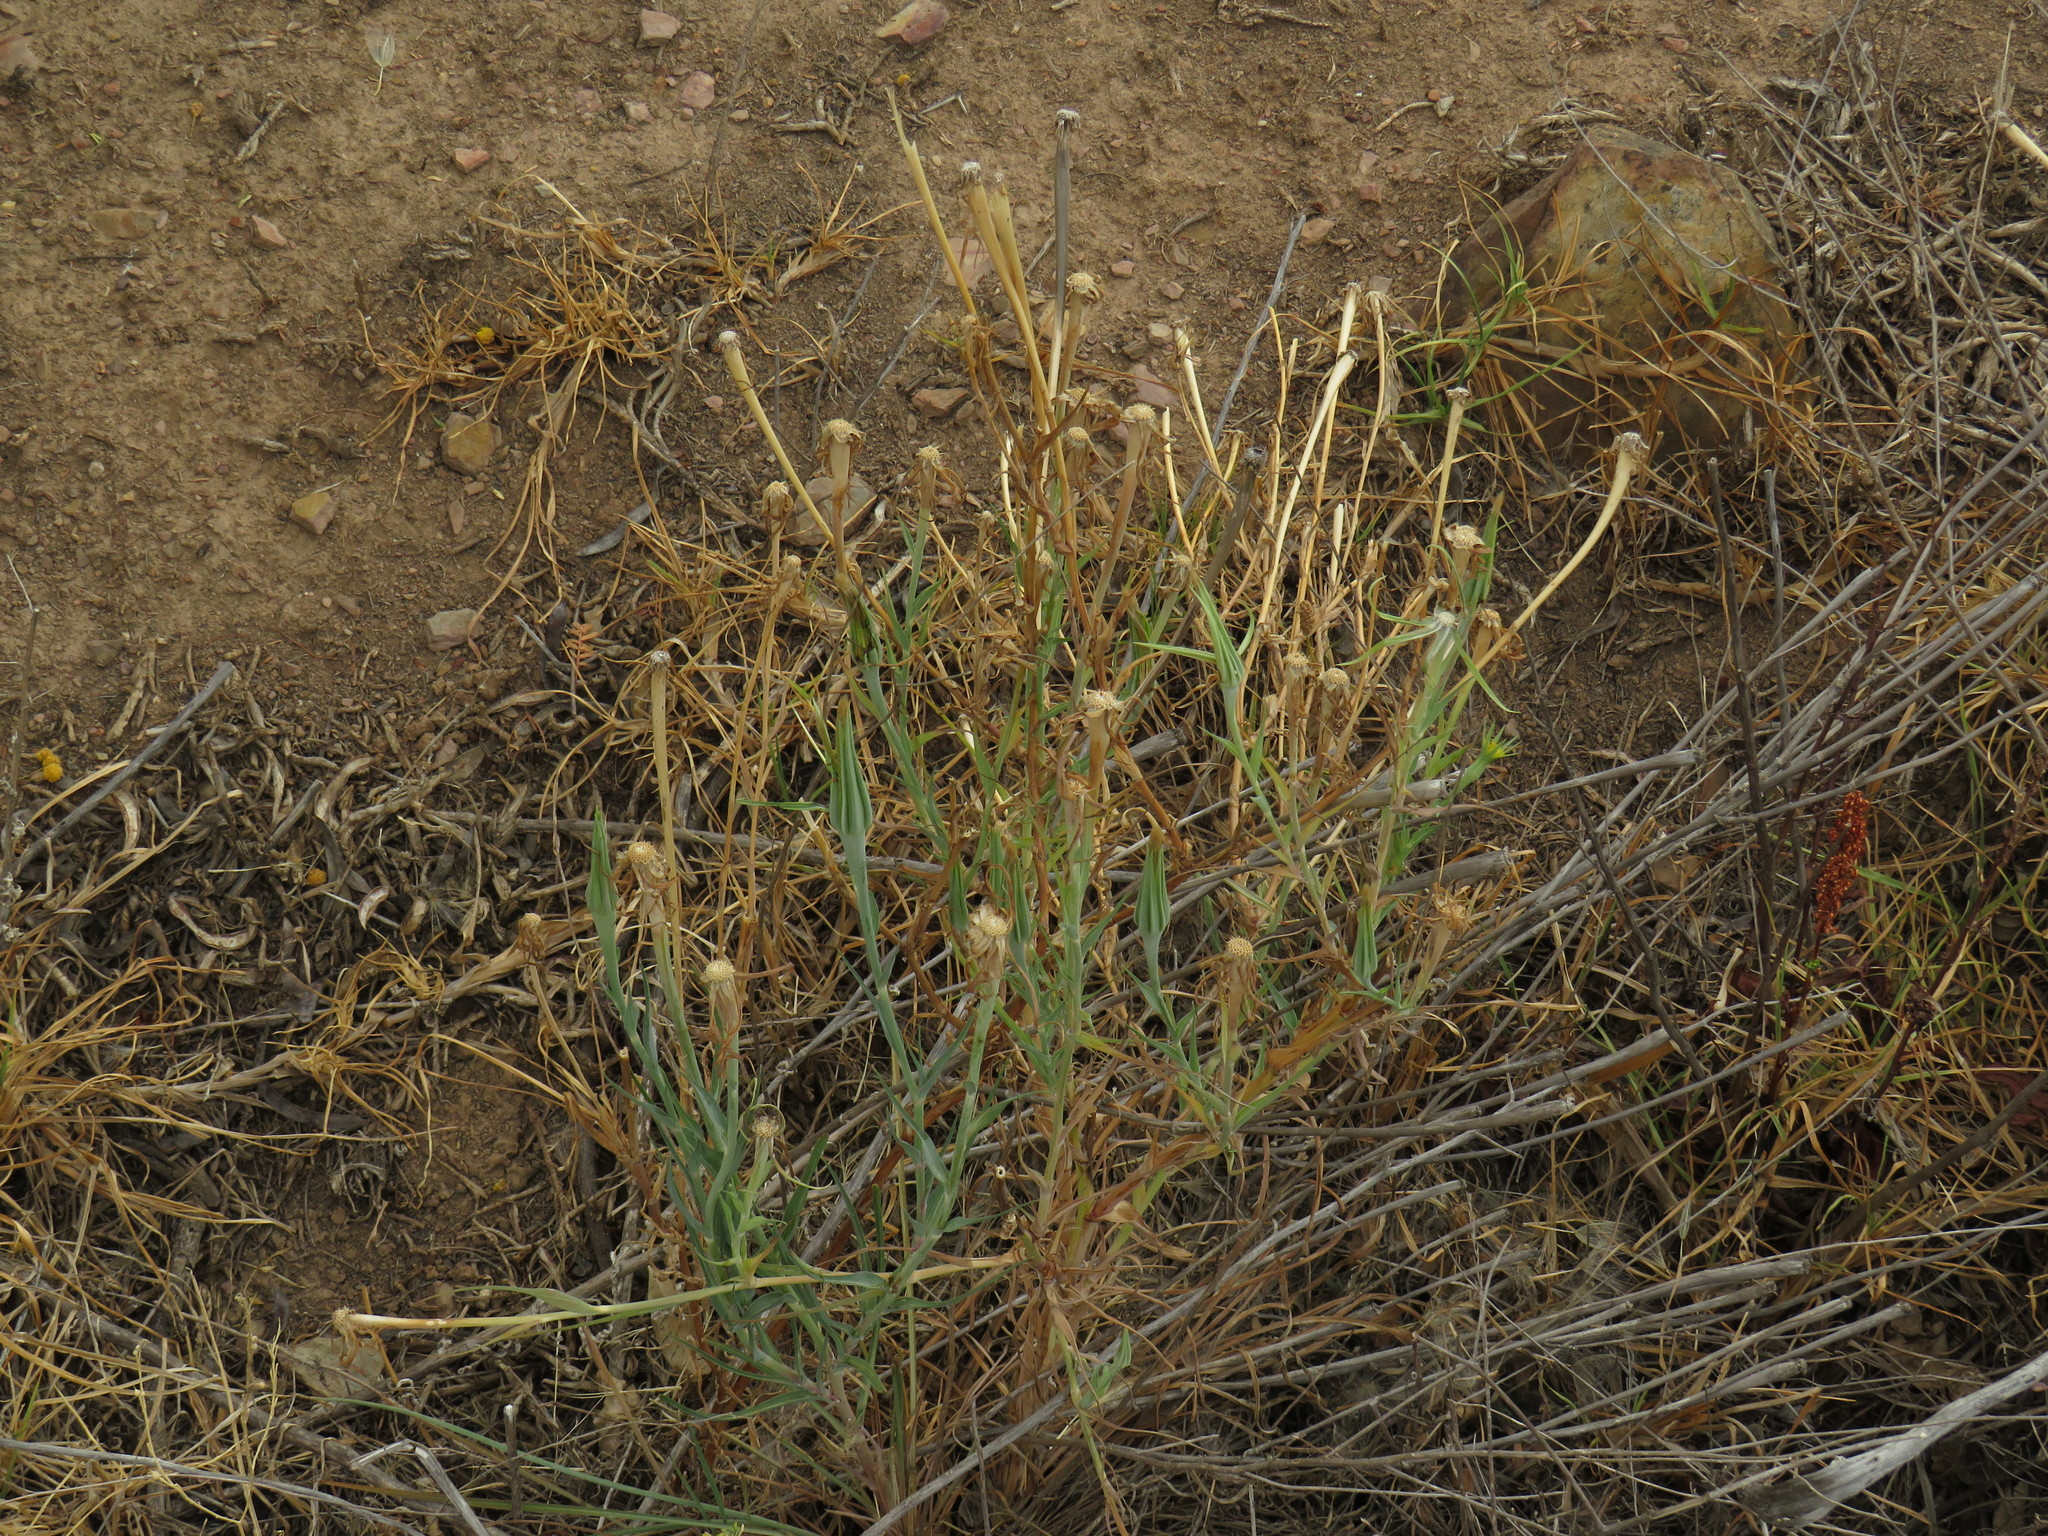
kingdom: Plantae
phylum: Tracheophyta
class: Magnoliopsida
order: Asterales
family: Asteraceae
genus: Tragopogon
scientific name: Tragopogon dubius
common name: Yellow salsify
